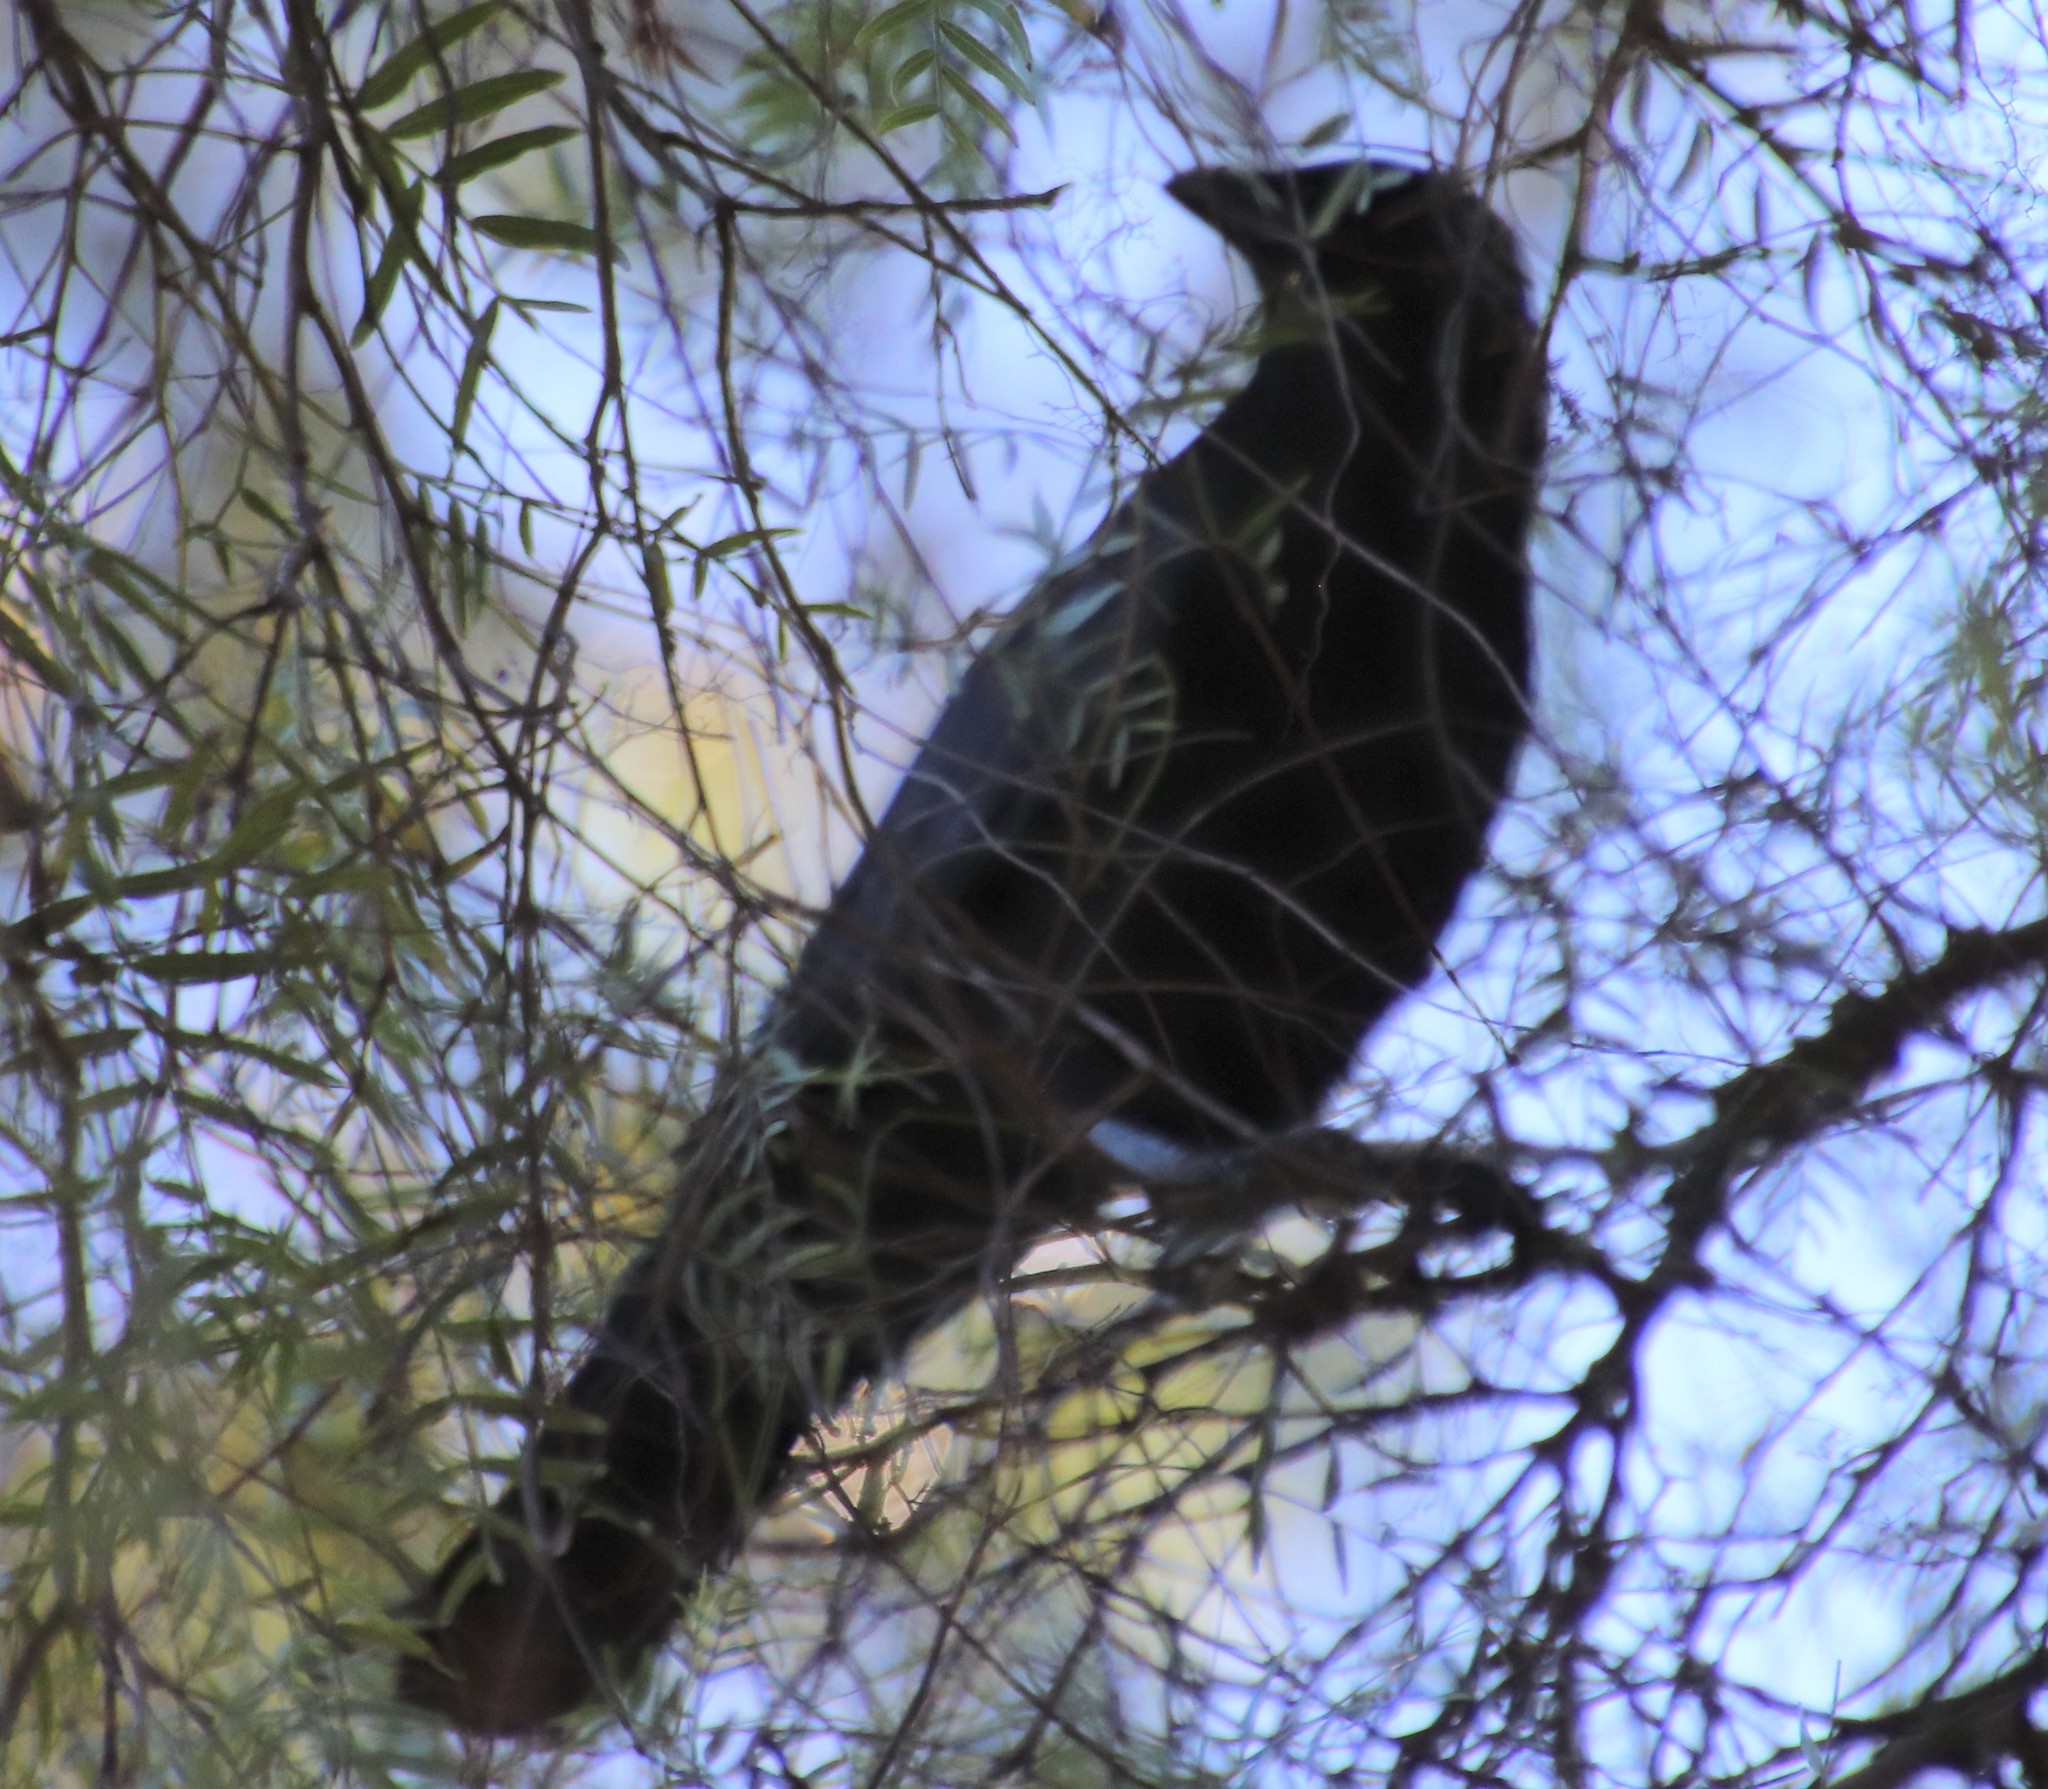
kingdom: Animalia
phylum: Chordata
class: Aves
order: Passeriformes
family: Corvidae
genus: Corvus
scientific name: Corvus brachyrhynchos
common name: American crow
